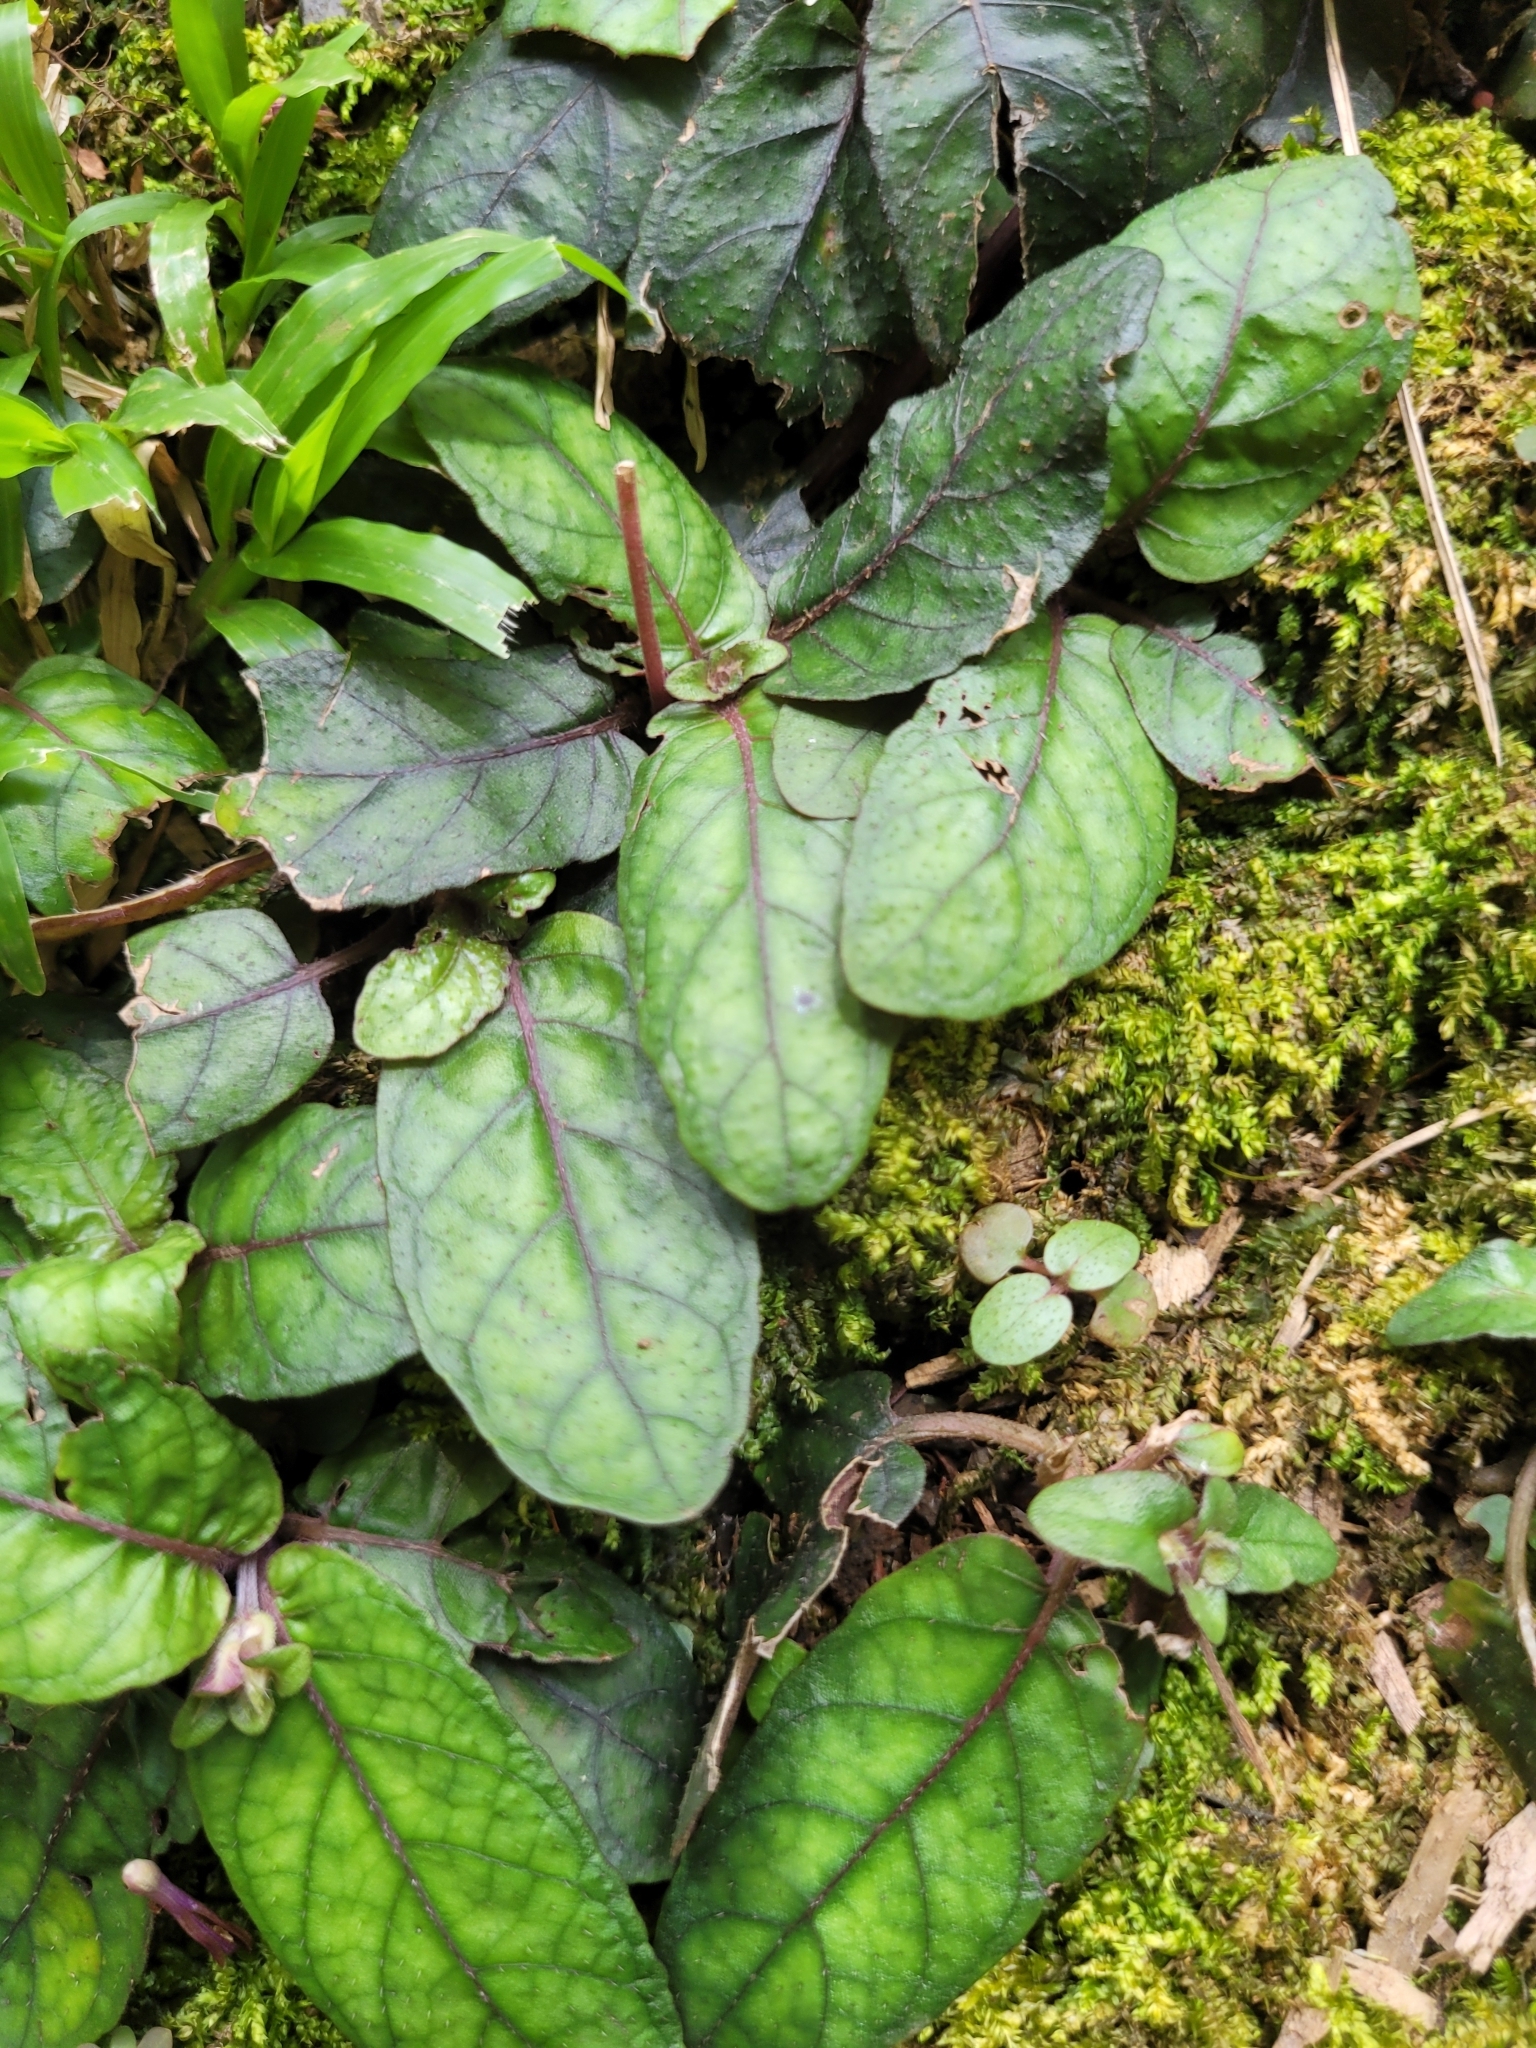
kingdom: Plantae
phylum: Tracheophyta
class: Magnoliopsida
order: Lamiales
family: Acanthaceae
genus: Strobilanthes
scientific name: Strobilanthes reptans
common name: Acanthaceae
